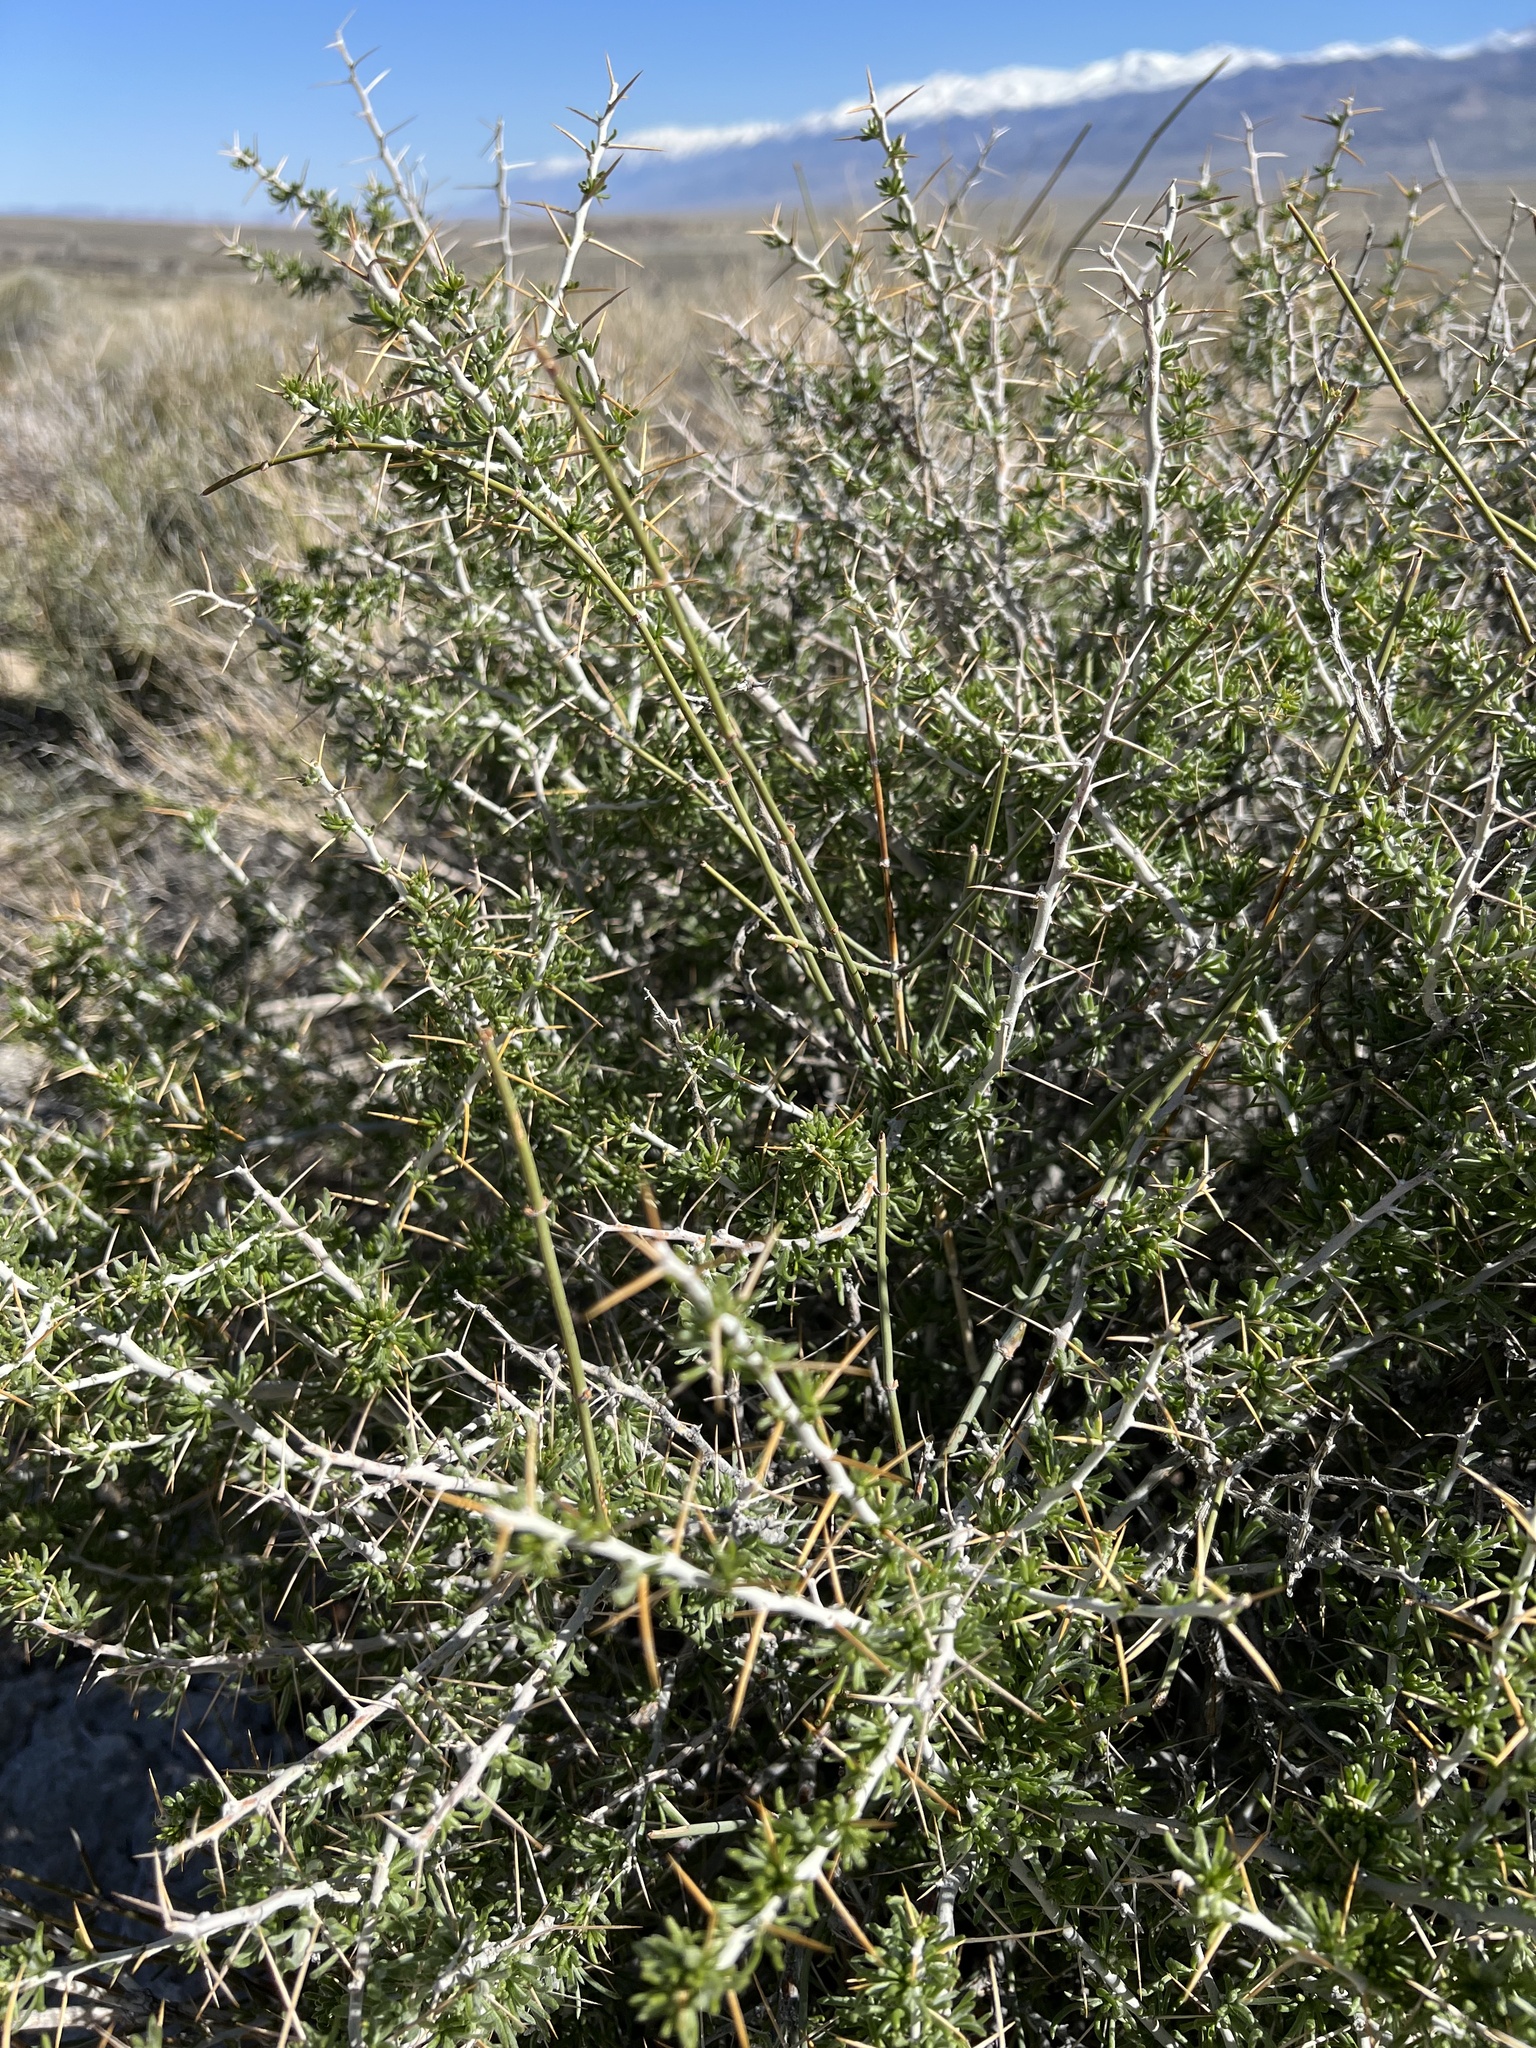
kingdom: Plantae
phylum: Tracheophyta
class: Magnoliopsida
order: Asterales
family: Asteraceae
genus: Tetradymia
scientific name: Tetradymia axillaris
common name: Long-spine horsebrush
